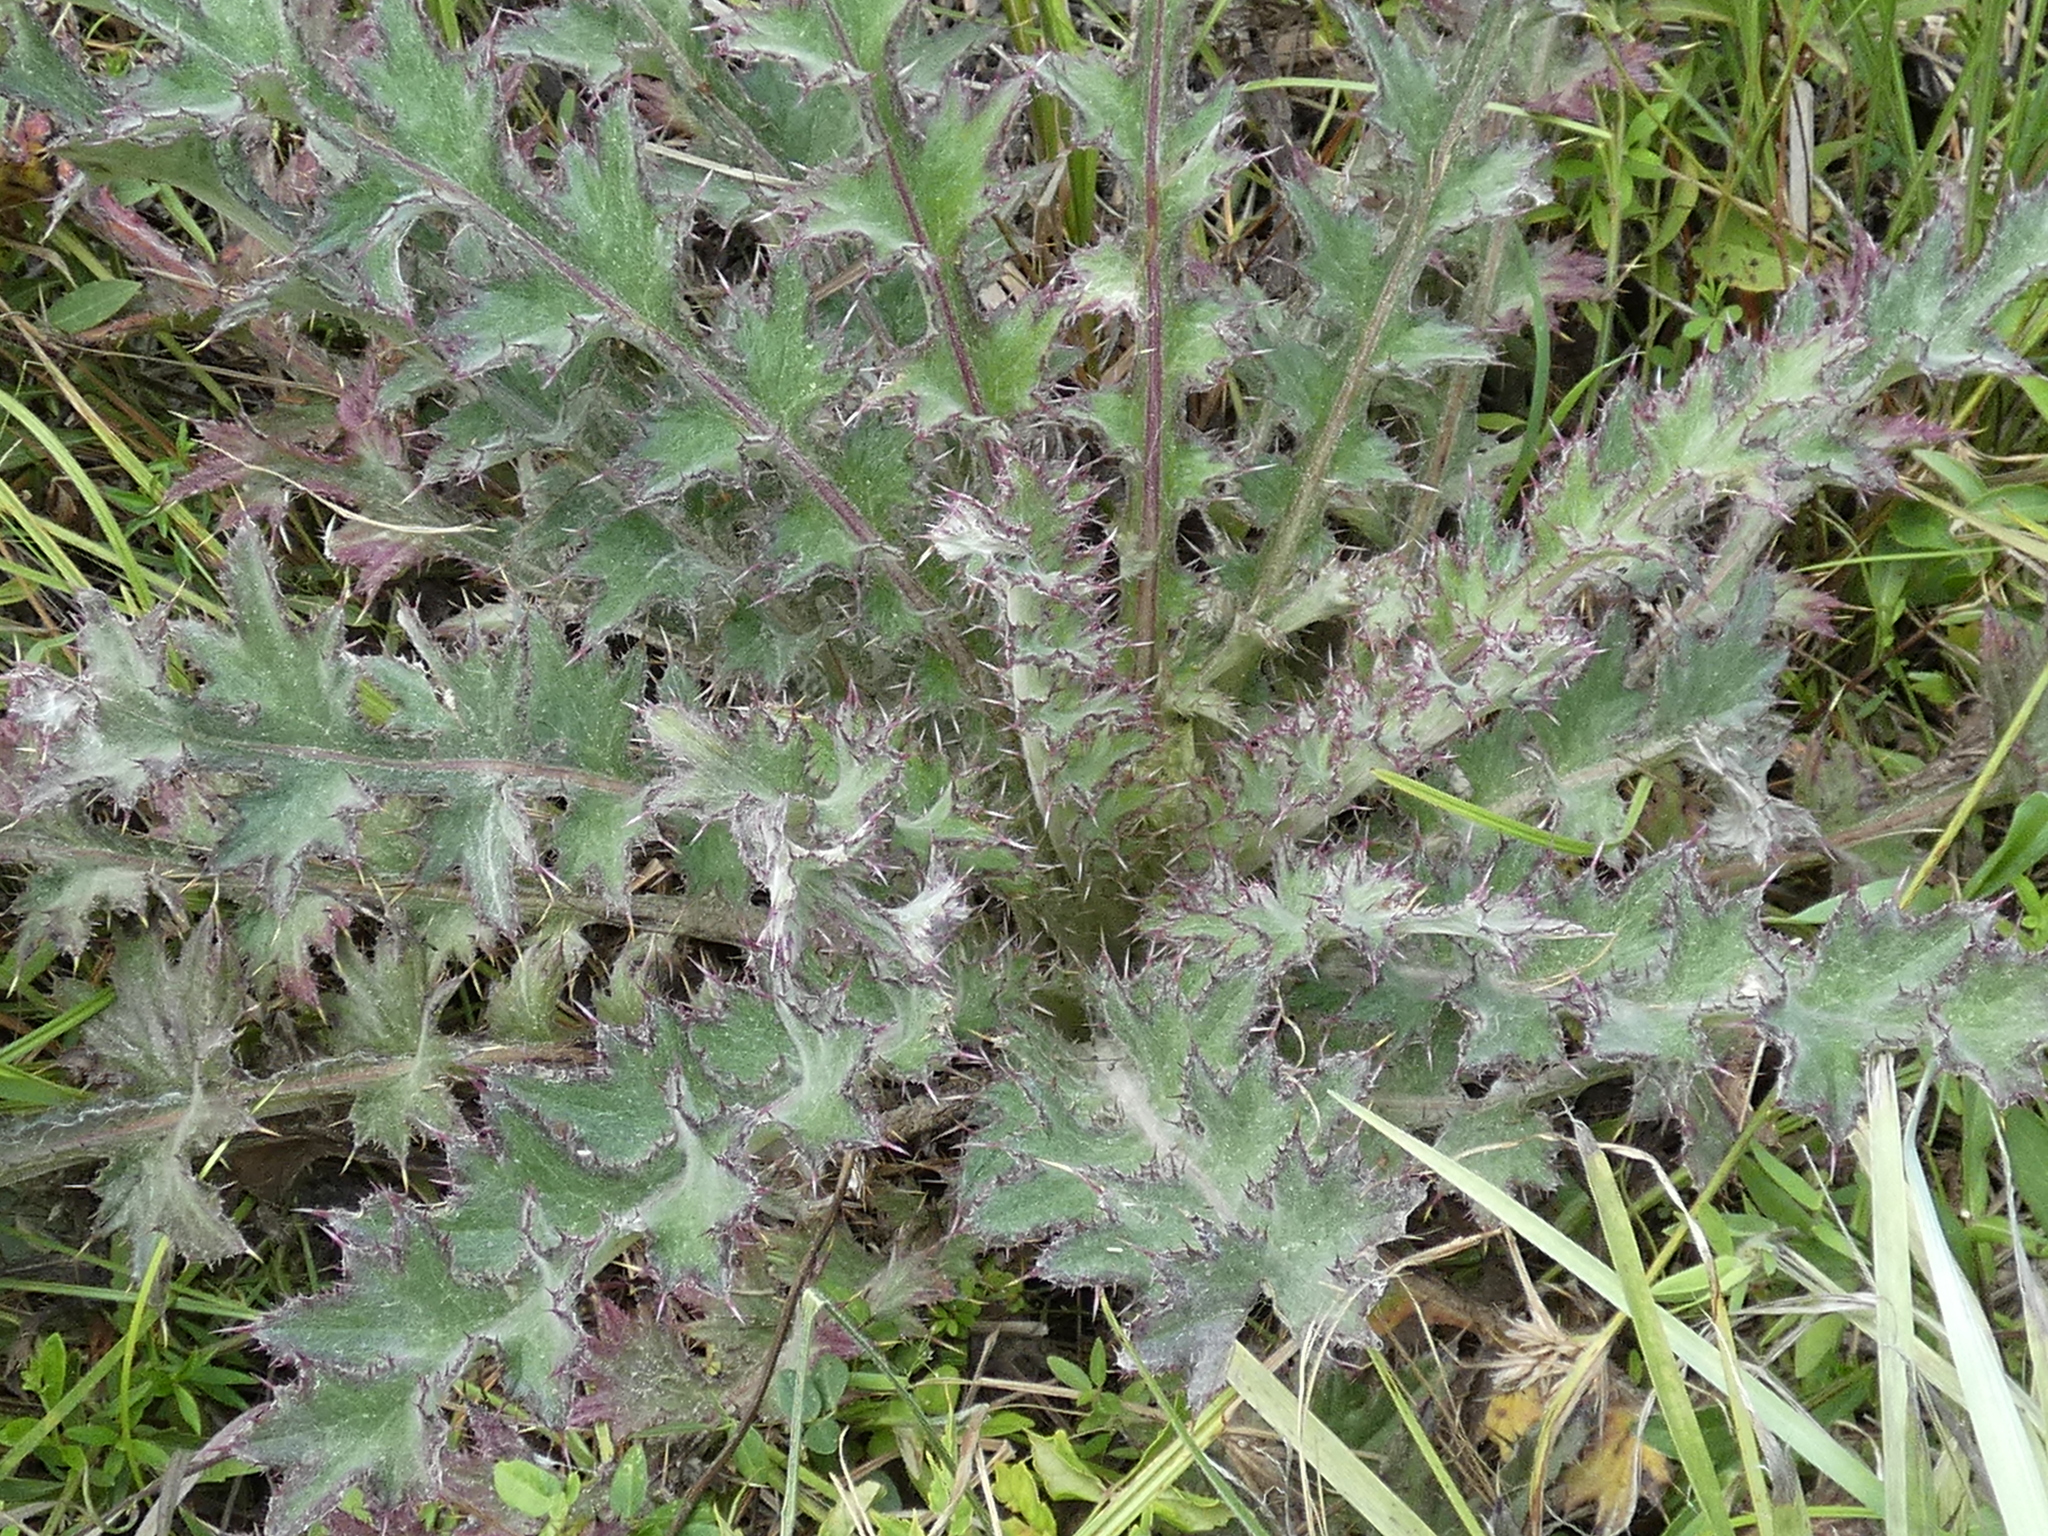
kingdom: Plantae
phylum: Tracheophyta
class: Magnoliopsida
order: Asterales
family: Asteraceae
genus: Cirsium
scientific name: Cirsium horridulum
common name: Bristly thistle
